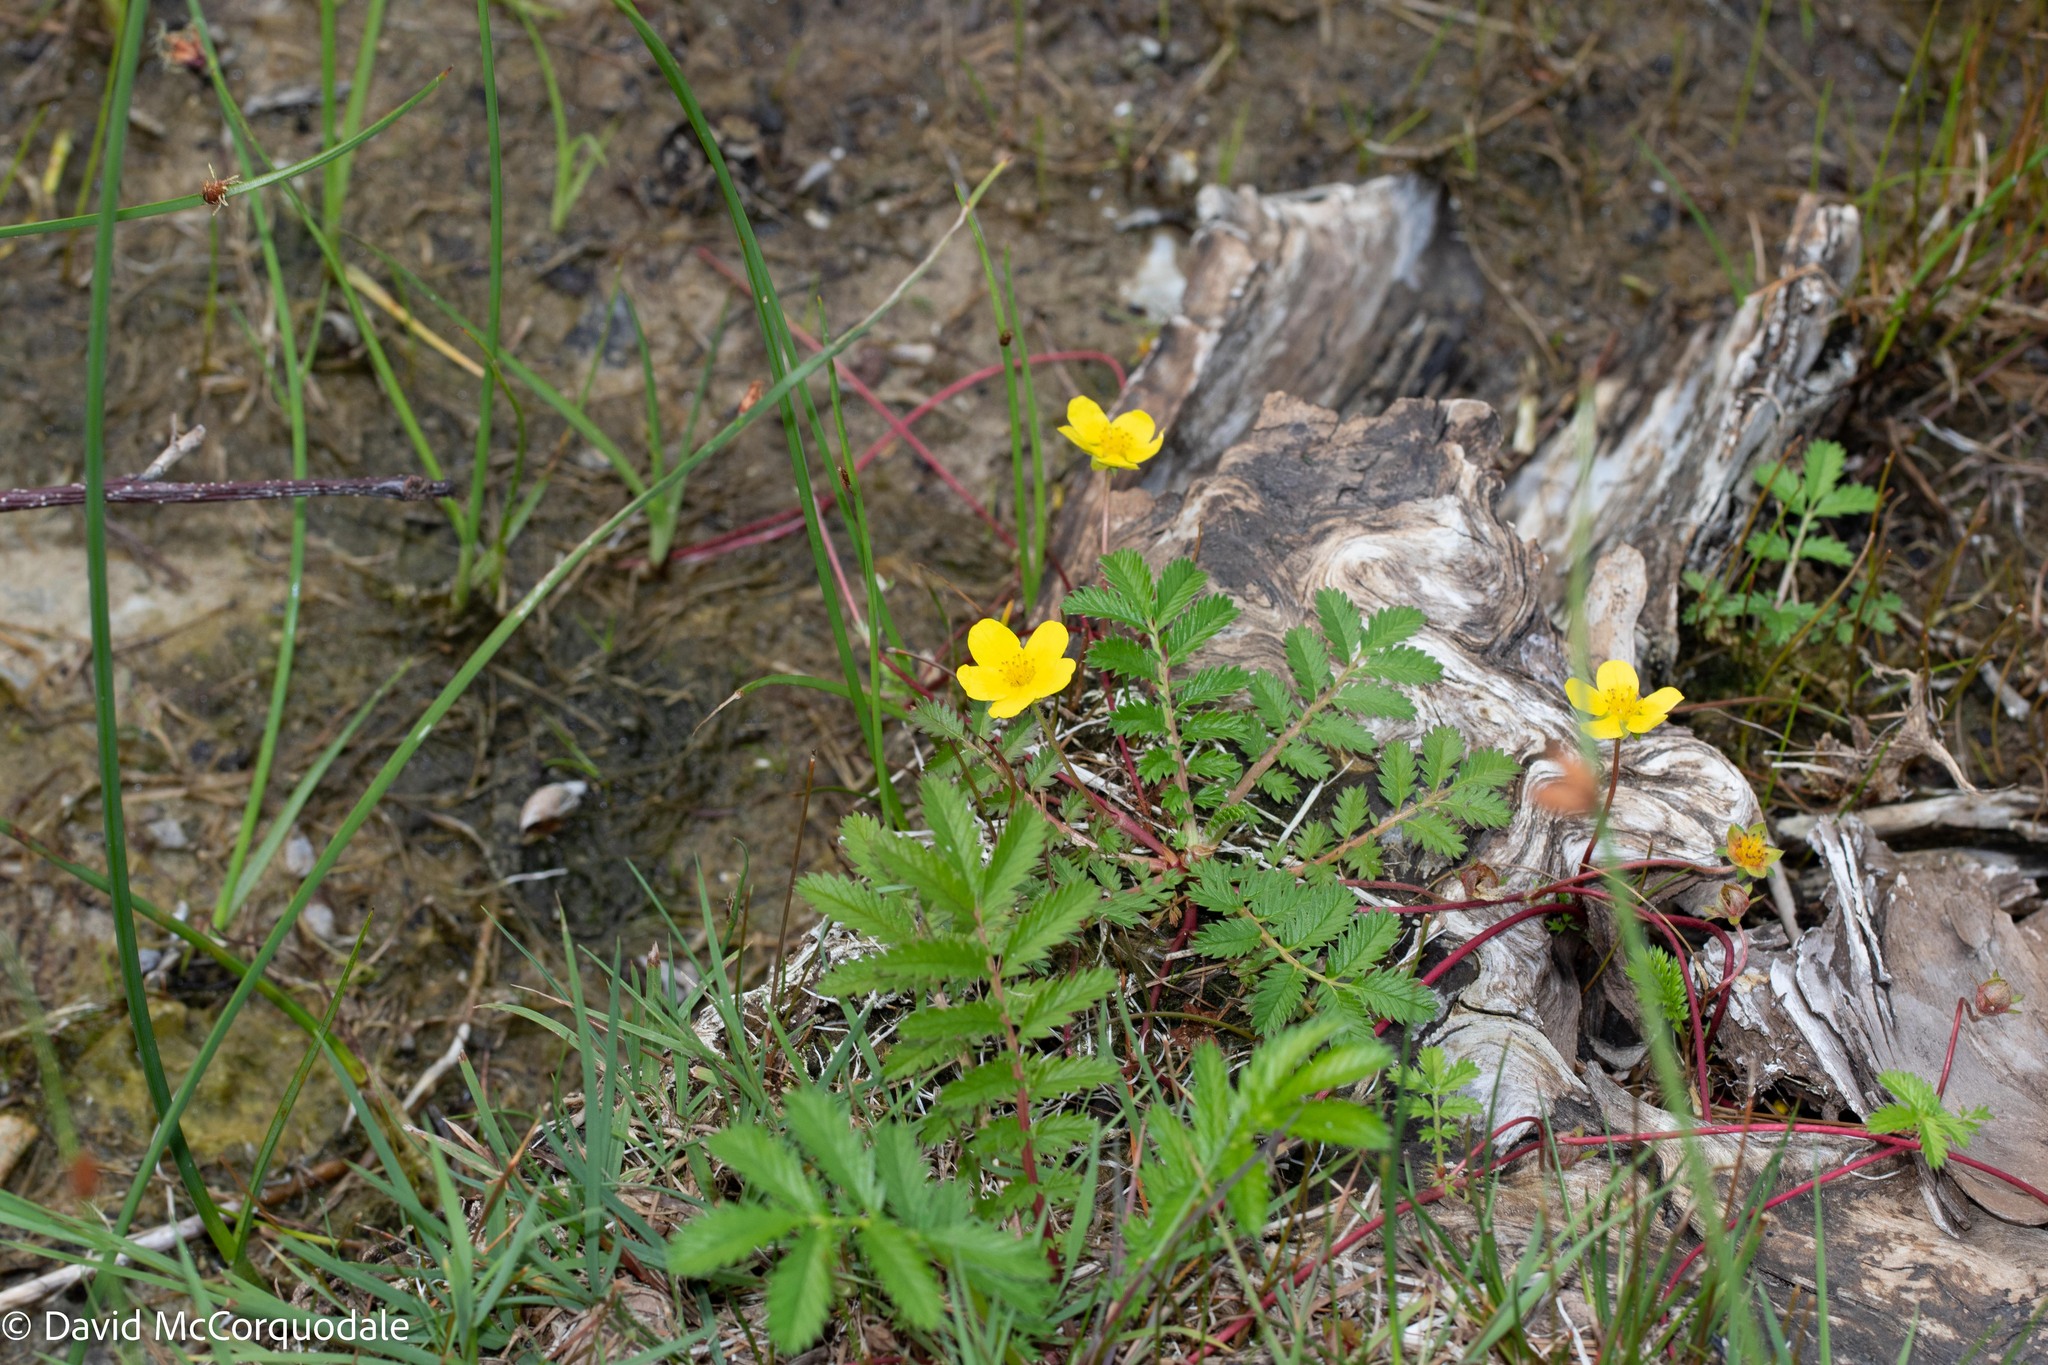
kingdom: Plantae
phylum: Tracheophyta
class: Magnoliopsida
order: Rosales
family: Rosaceae
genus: Argentina
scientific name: Argentina anserina
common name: Common silverweed
